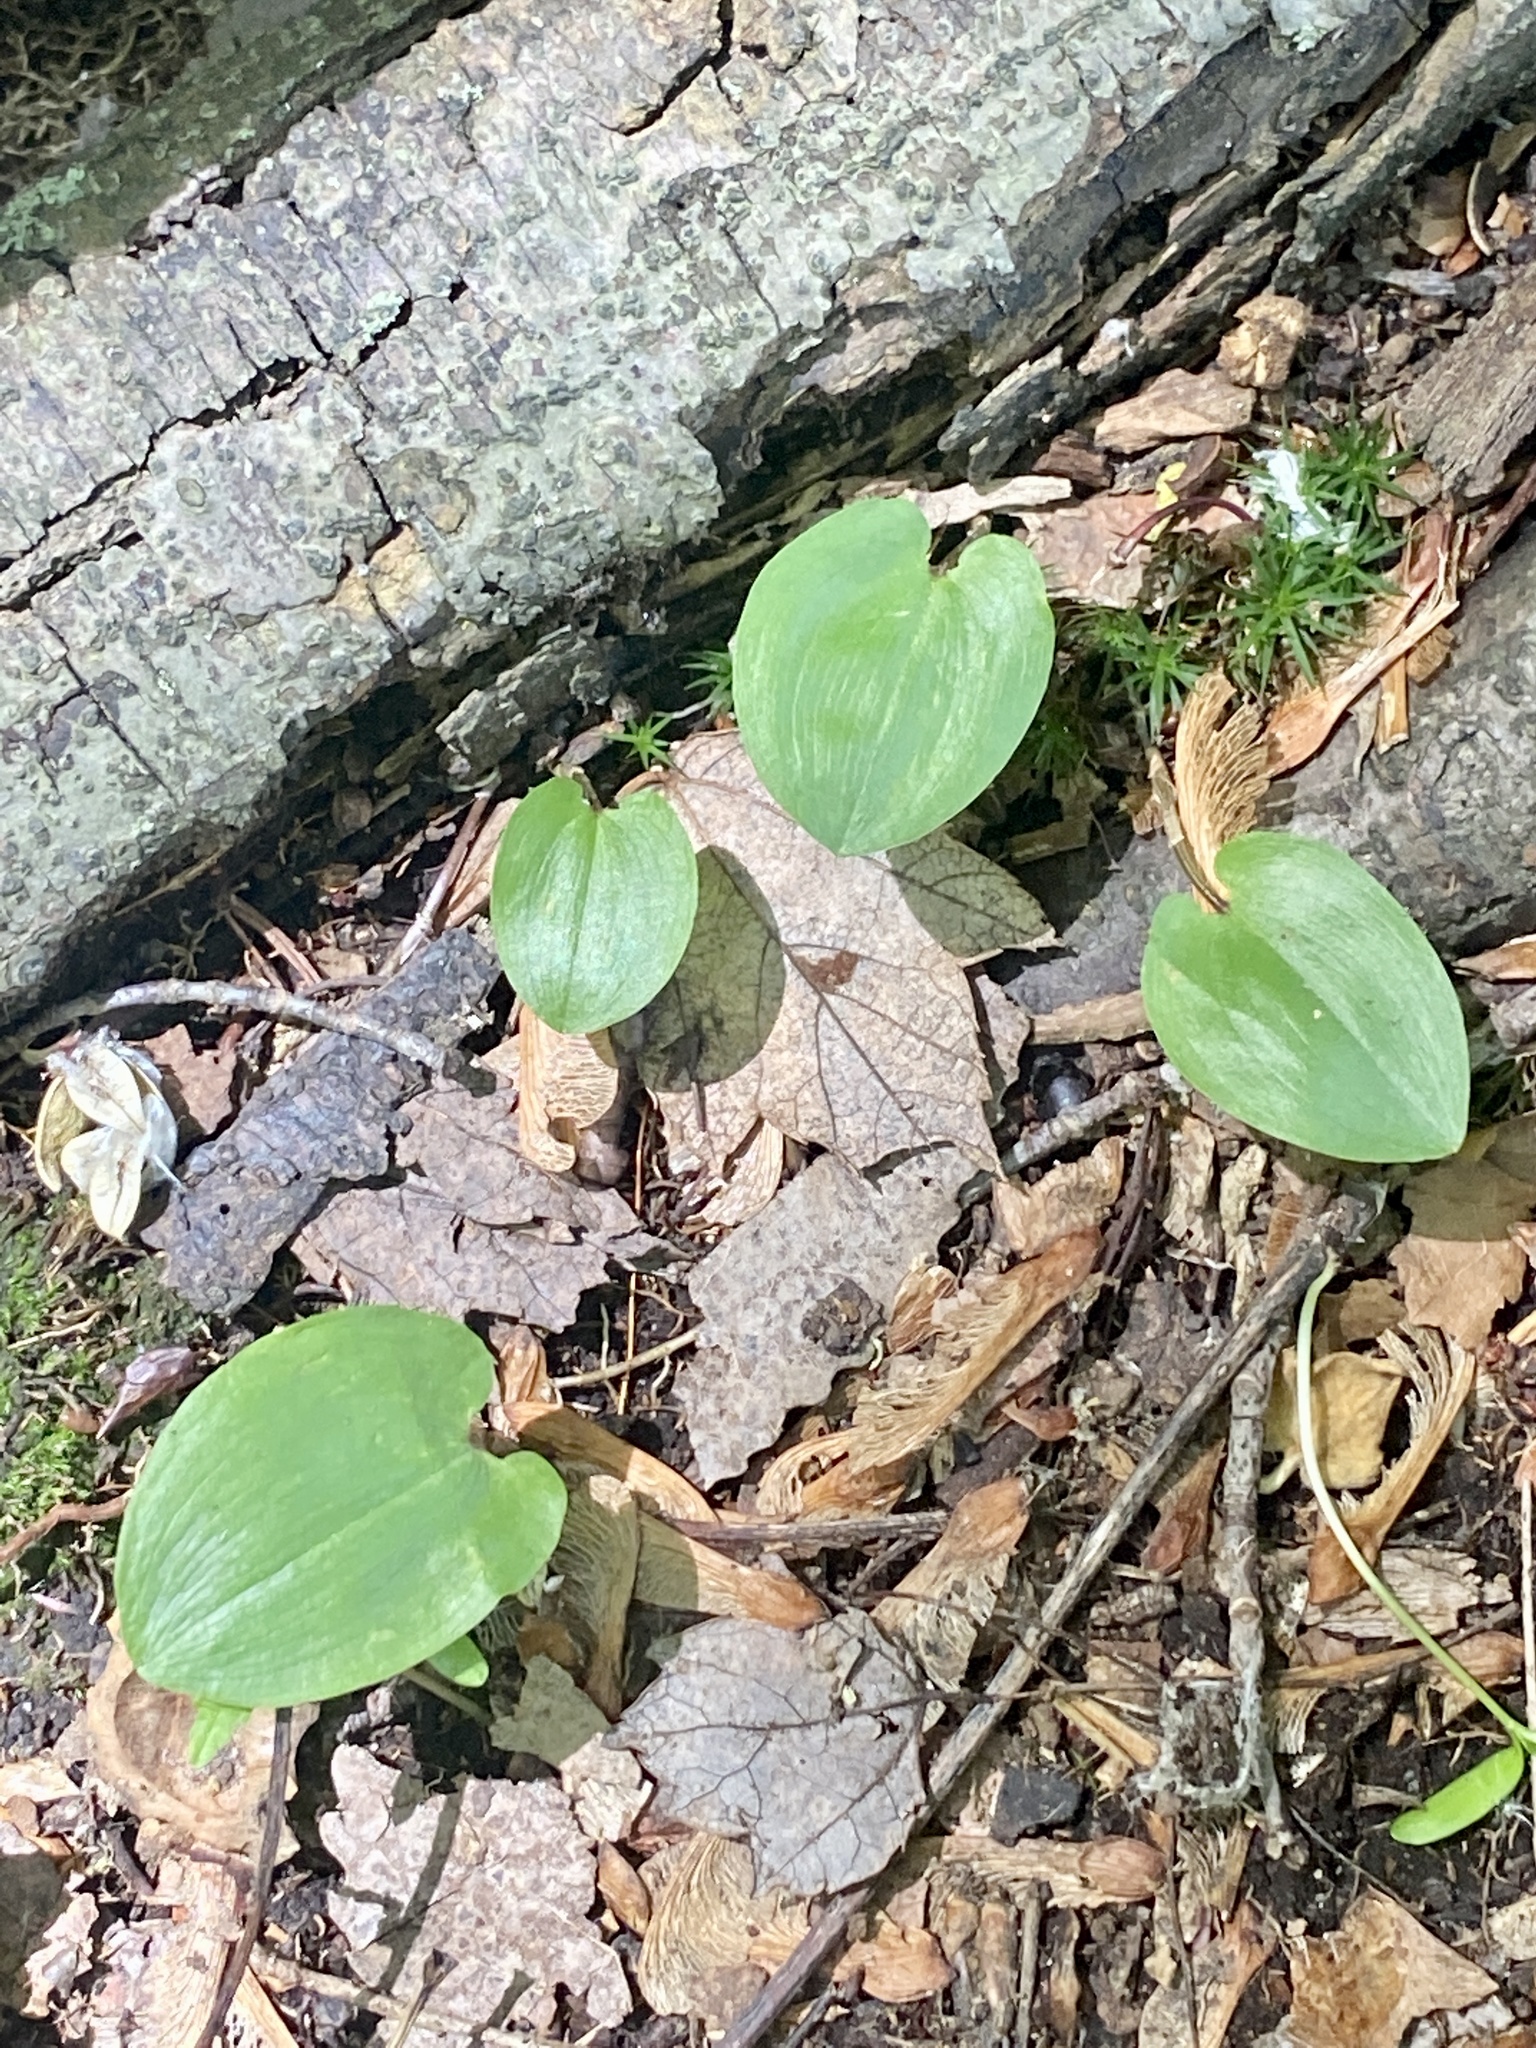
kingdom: Plantae
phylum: Tracheophyta
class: Liliopsida
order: Asparagales
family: Asparagaceae
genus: Maianthemum
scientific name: Maianthemum canadense
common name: False lily-of-the-valley
